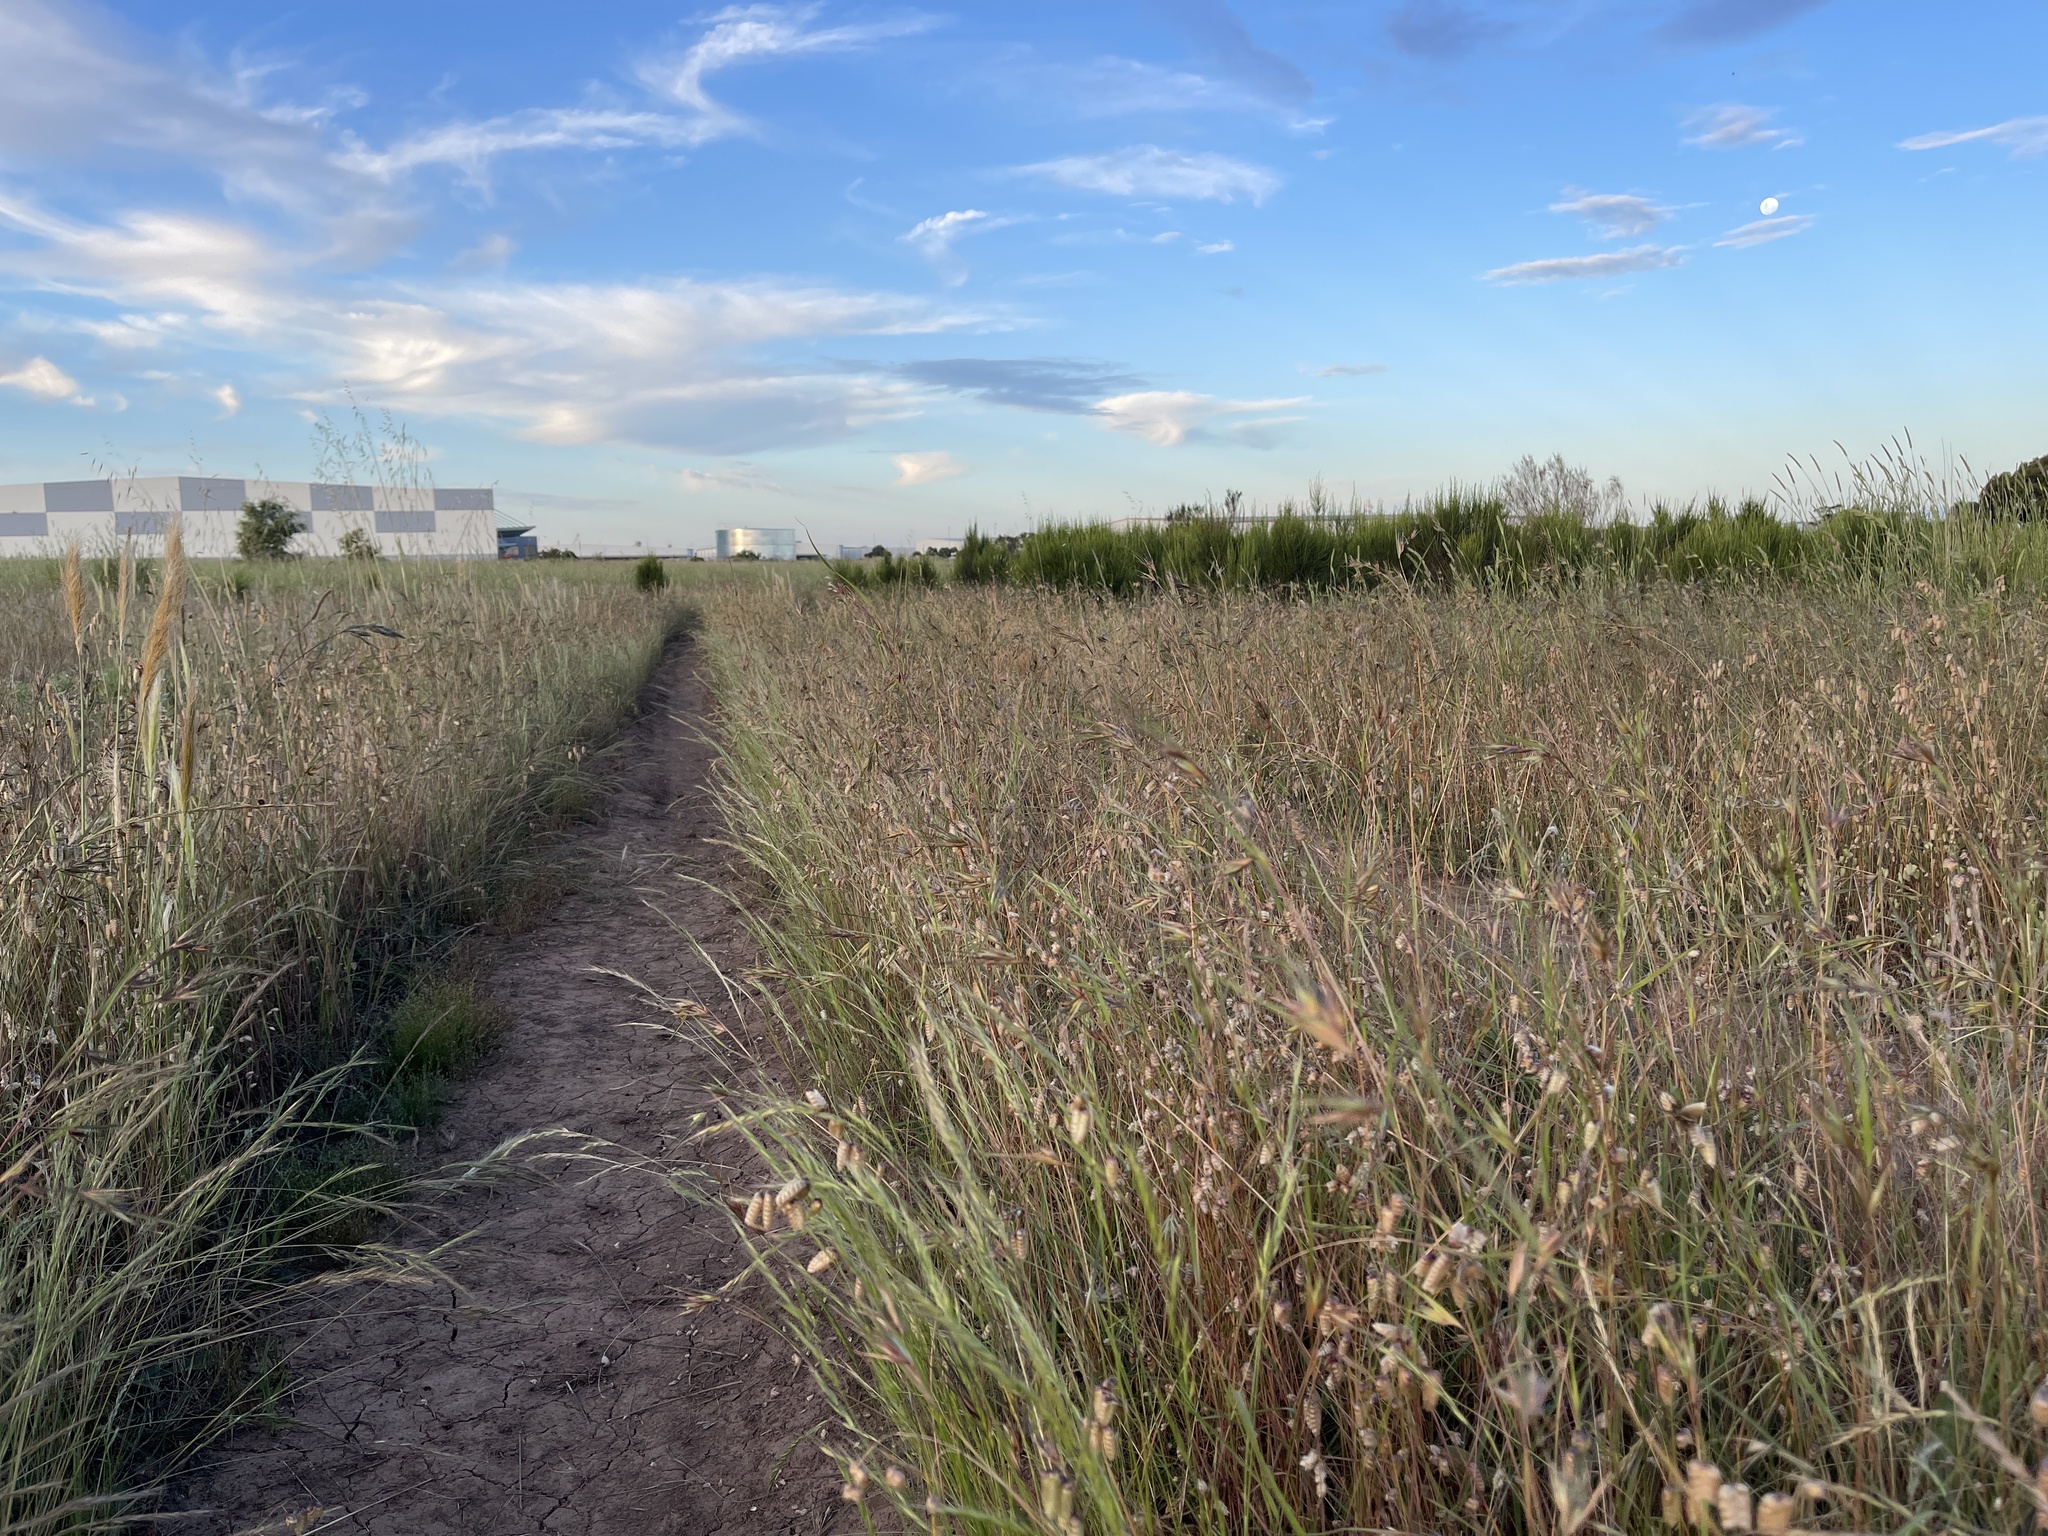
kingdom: Plantae
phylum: Tracheophyta
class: Liliopsida
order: Poales
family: Poaceae
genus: Themeda
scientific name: Themeda triandra
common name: Kangaroo grass
